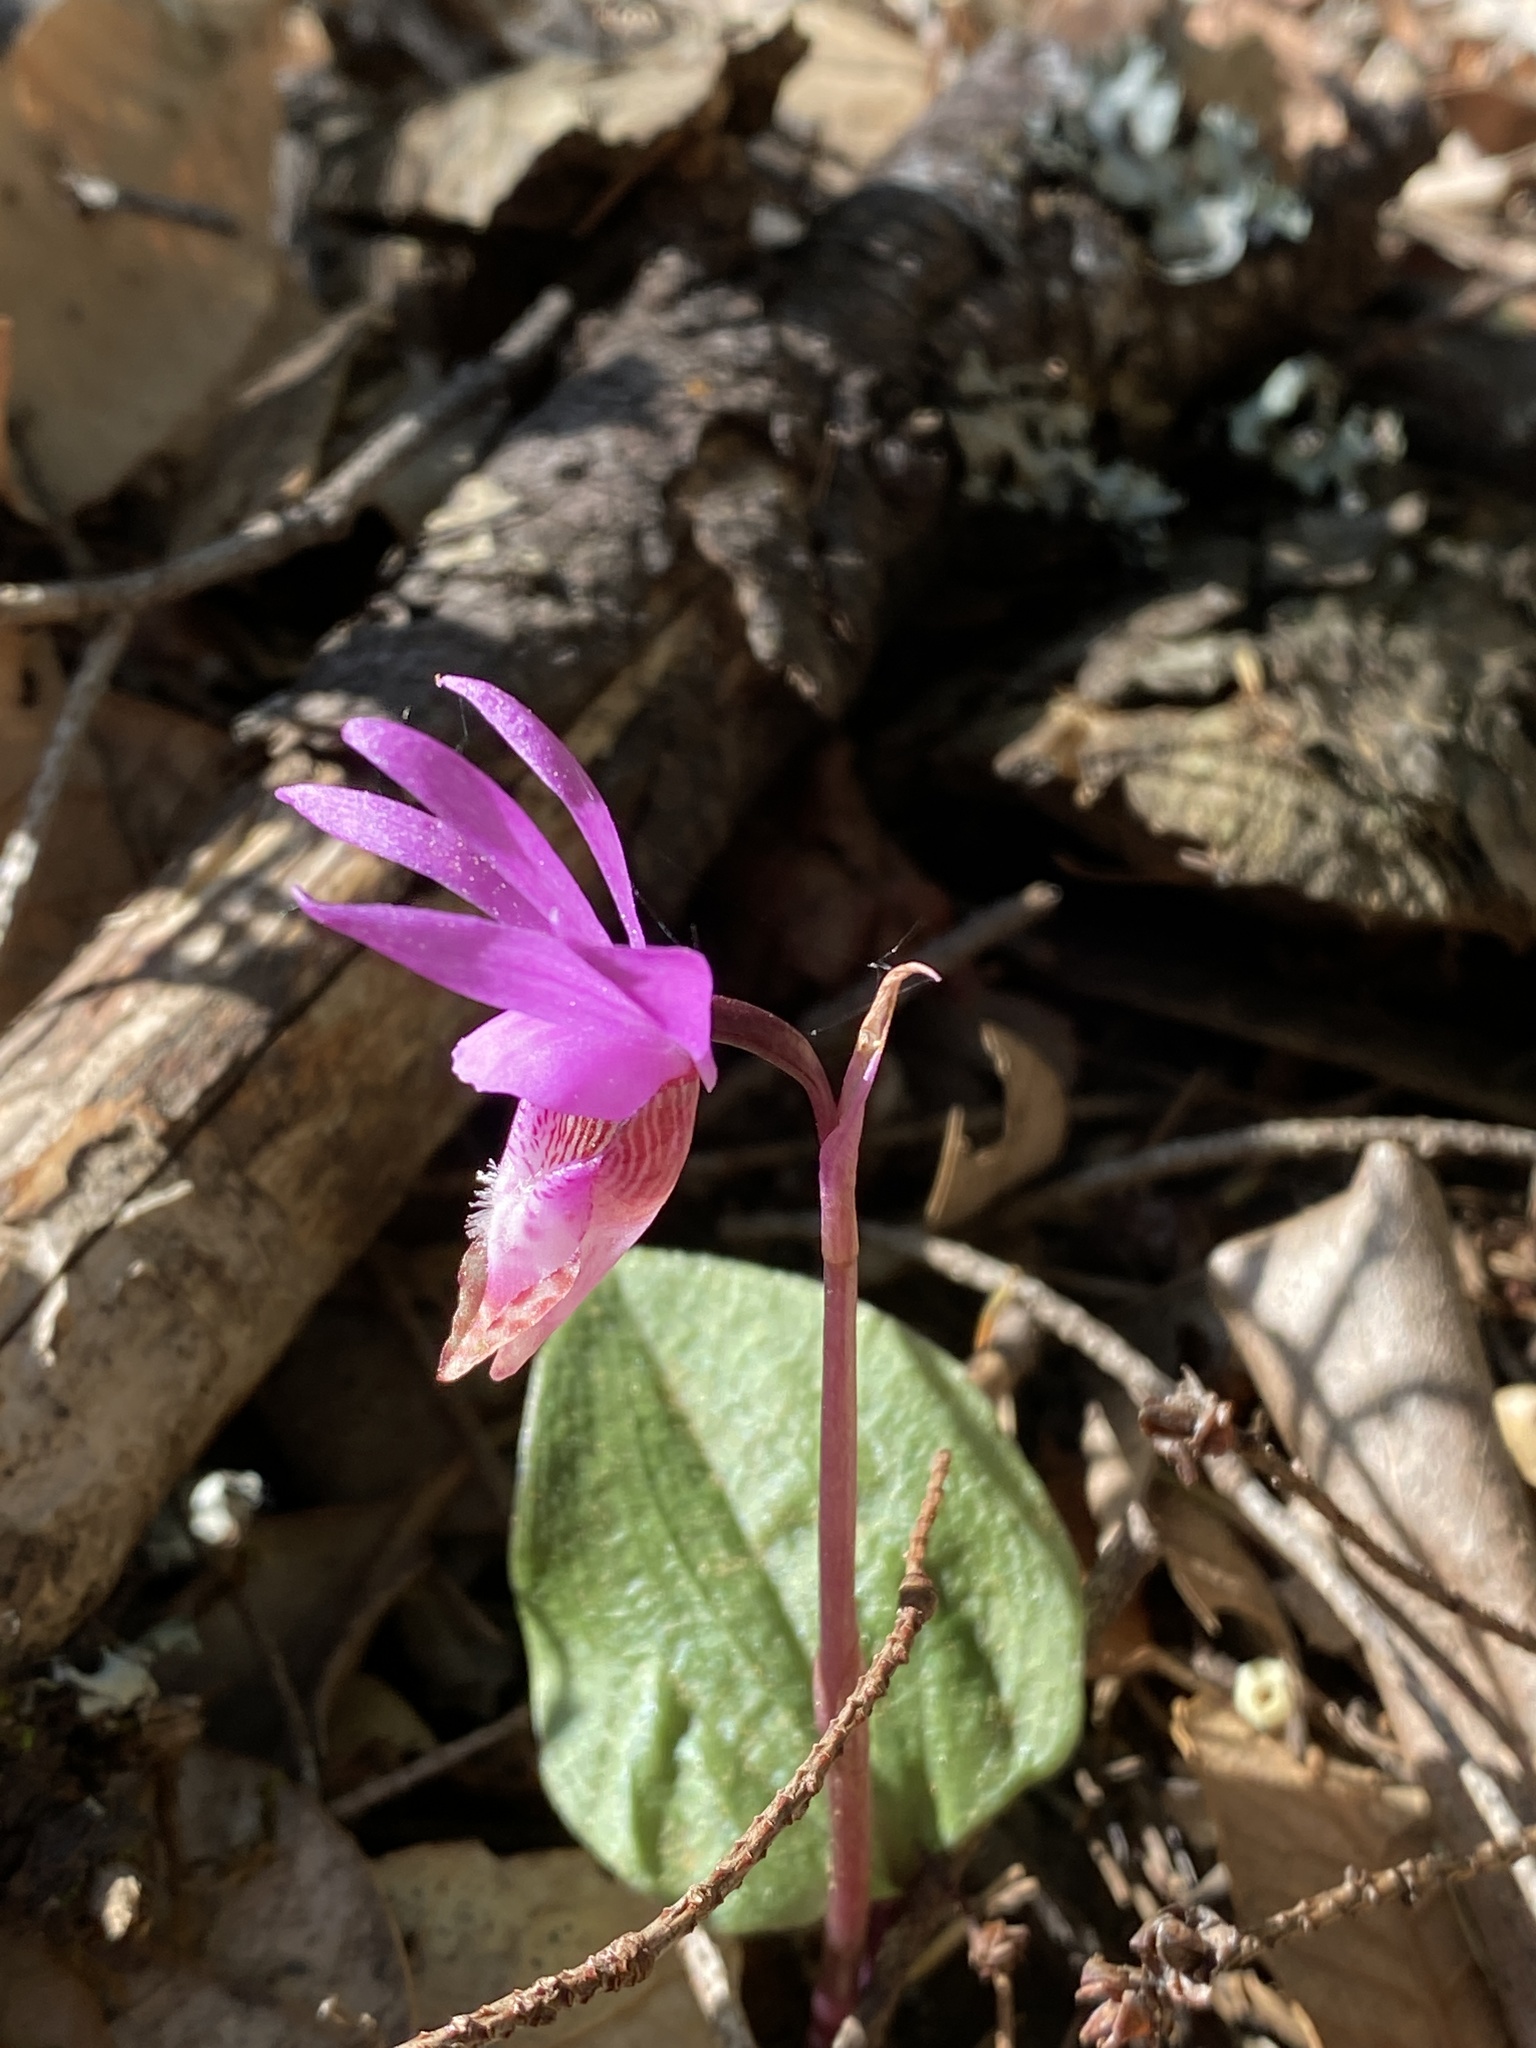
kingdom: Plantae
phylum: Tracheophyta
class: Liliopsida
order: Asparagales
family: Orchidaceae
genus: Calypso
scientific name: Calypso bulbosa
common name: Calypso
